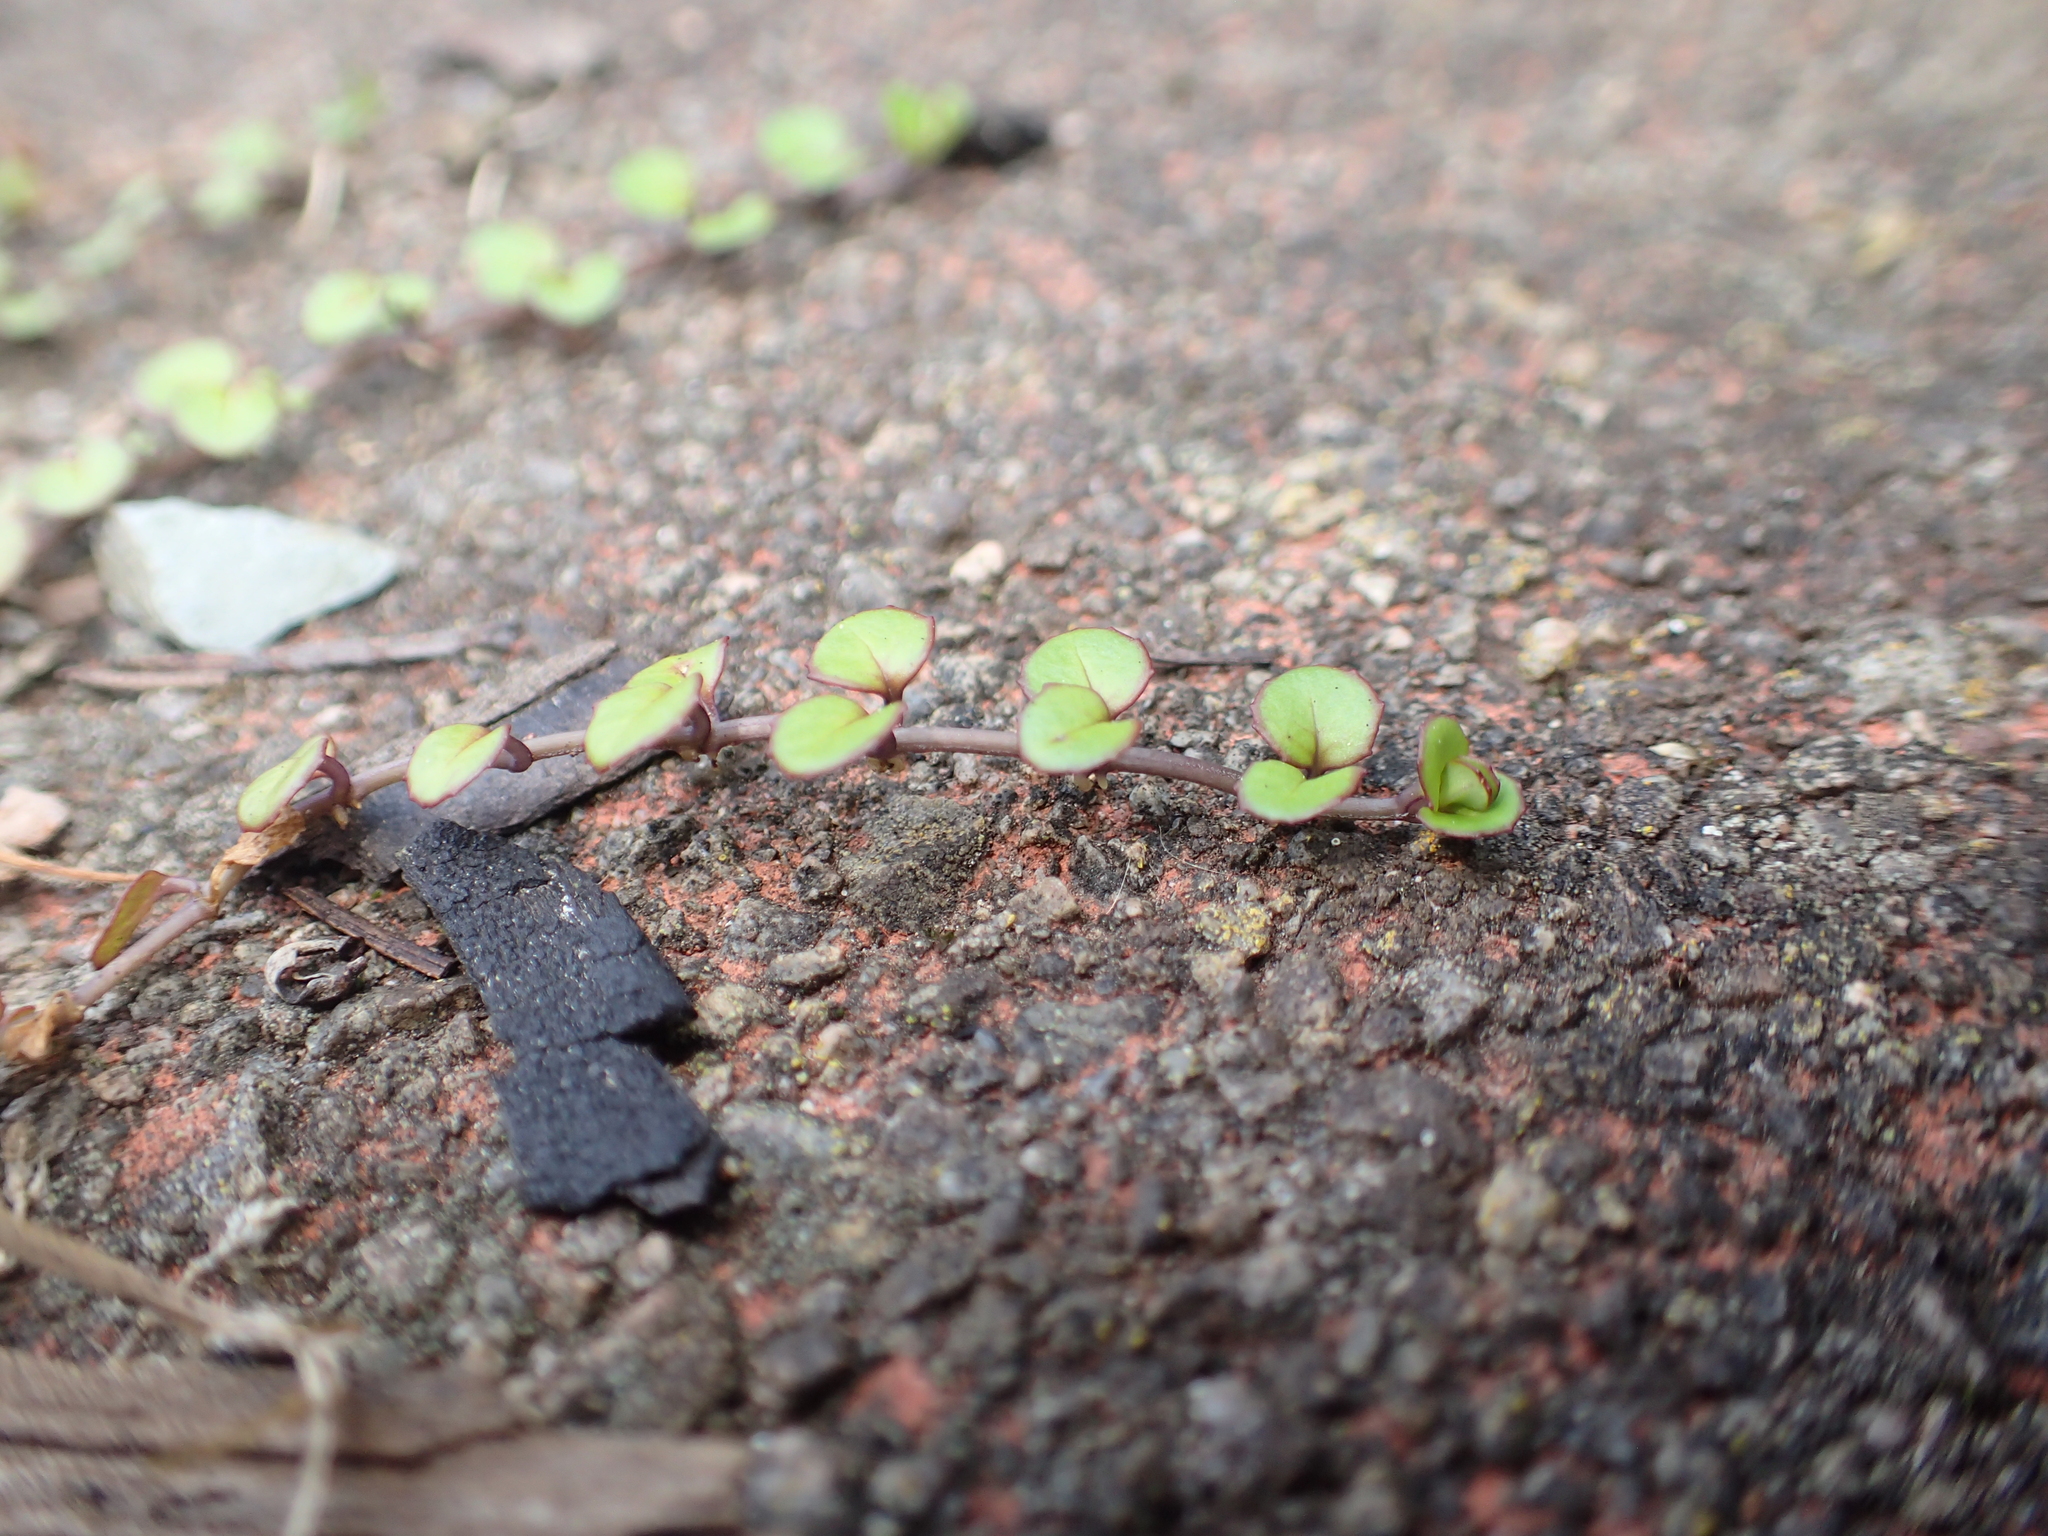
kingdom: Plantae
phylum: Tracheophyta
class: Magnoliopsida
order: Myrtales
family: Onagraceae
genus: Epilobium
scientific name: Epilobium nummularifolium
